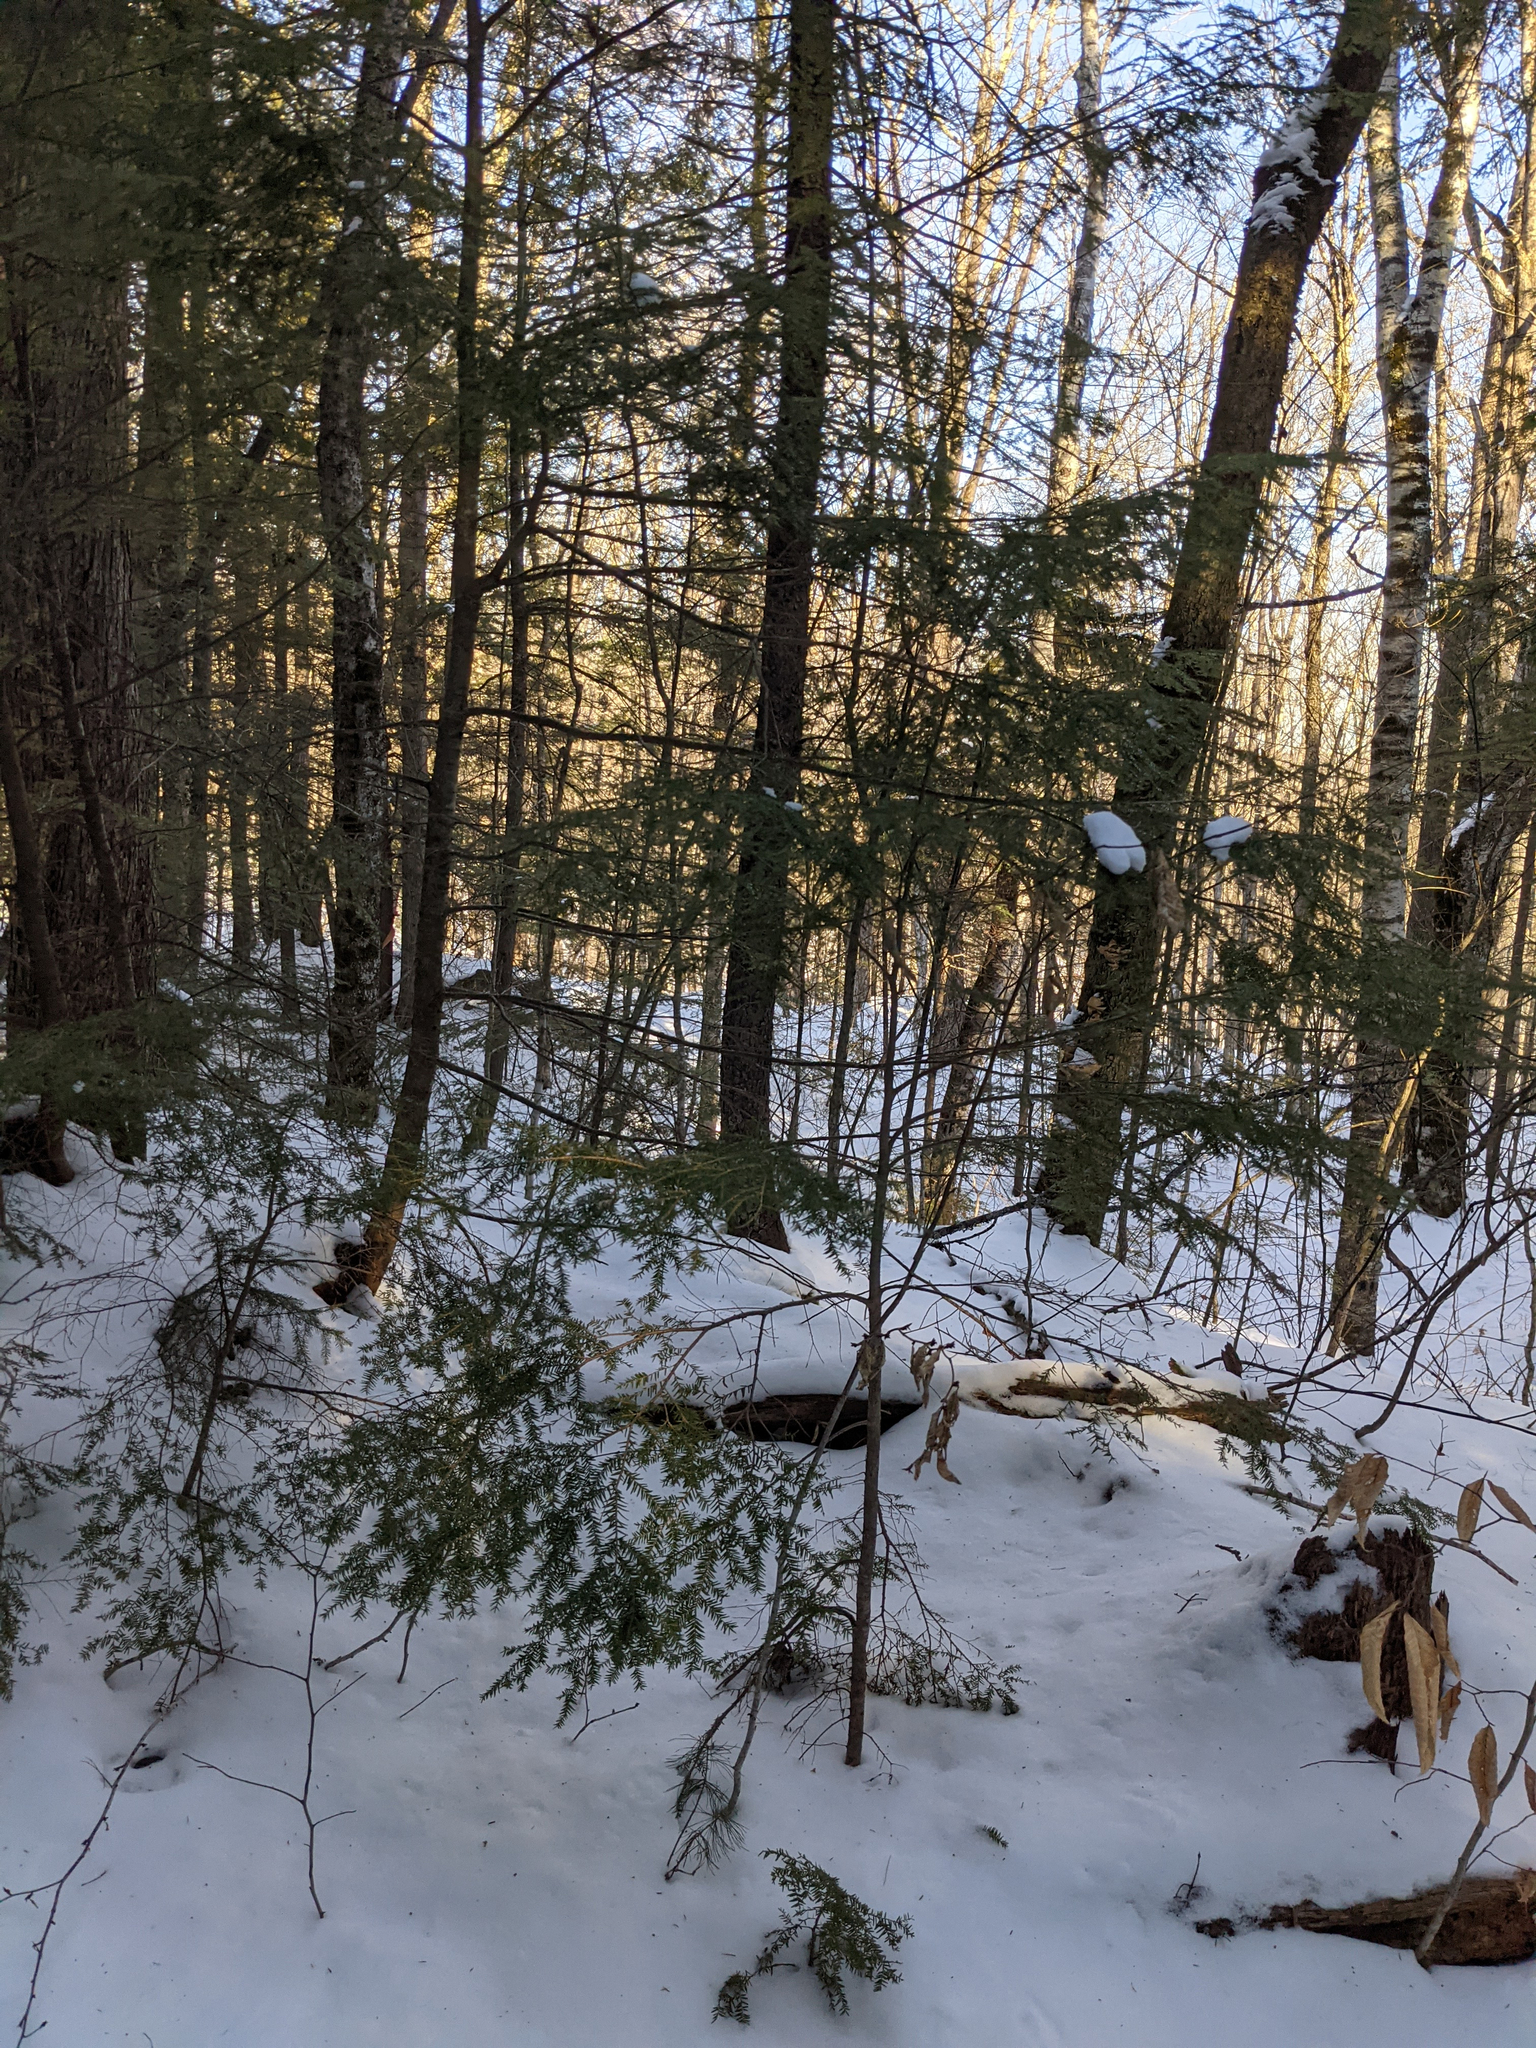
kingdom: Plantae
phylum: Tracheophyta
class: Pinopsida
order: Pinales
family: Pinaceae
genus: Tsuga
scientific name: Tsuga canadensis
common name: Eastern hemlock
